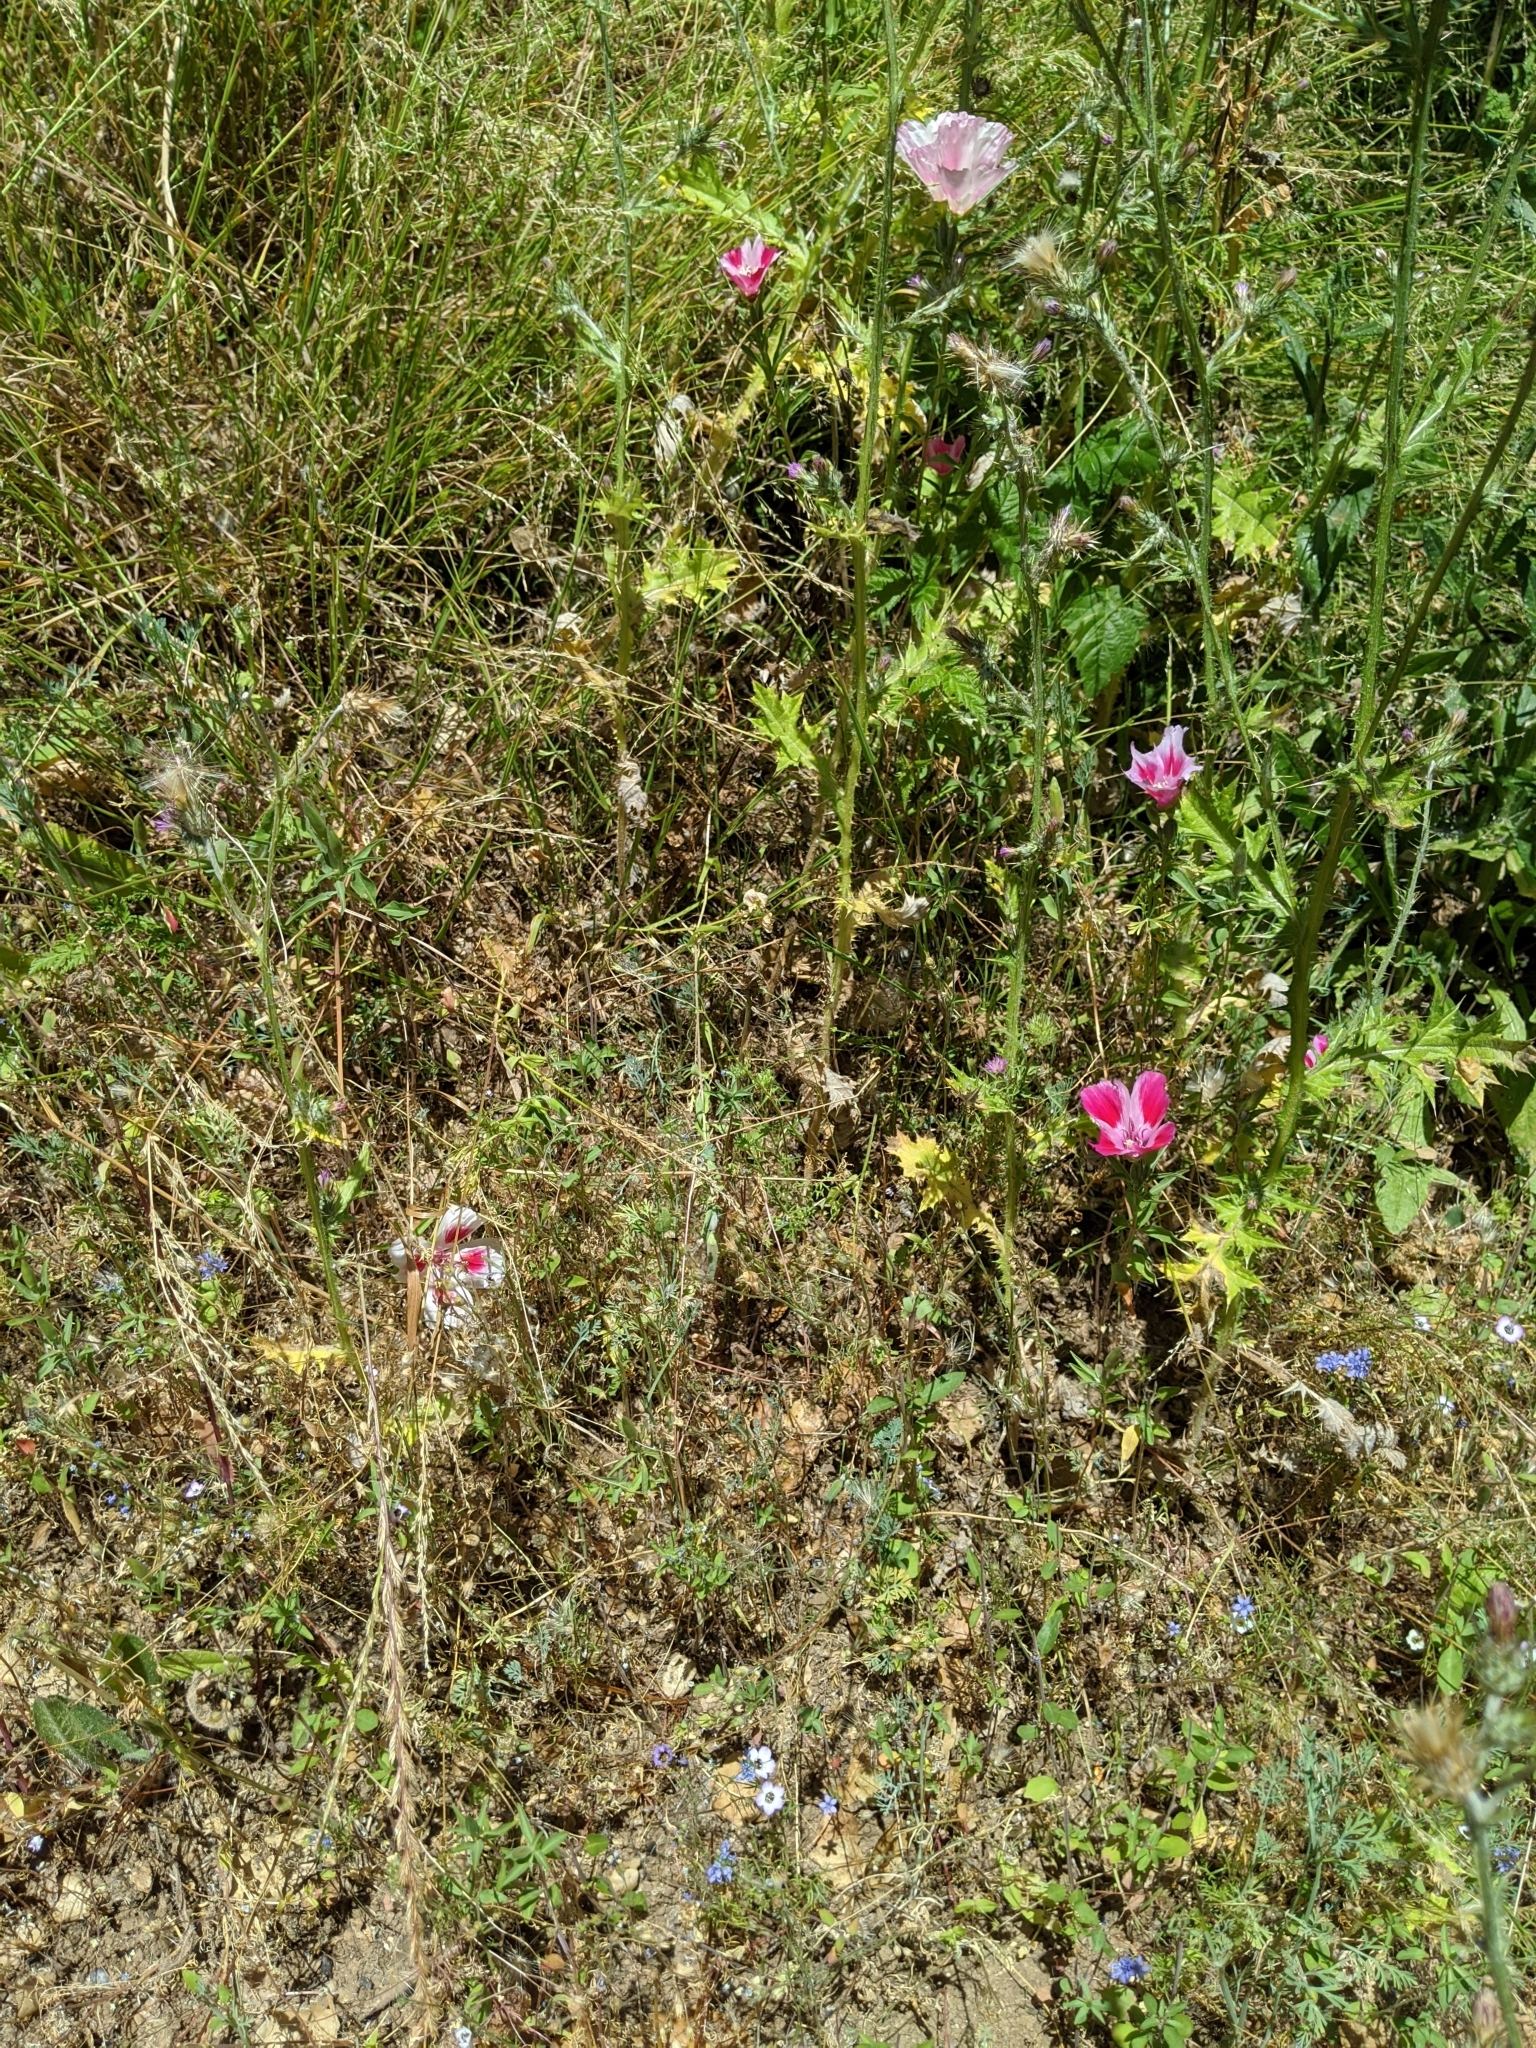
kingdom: Plantae
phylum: Tracheophyta
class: Magnoliopsida
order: Myrtales
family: Onagraceae
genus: Clarkia
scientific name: Clarkia amoena
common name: Godetia
